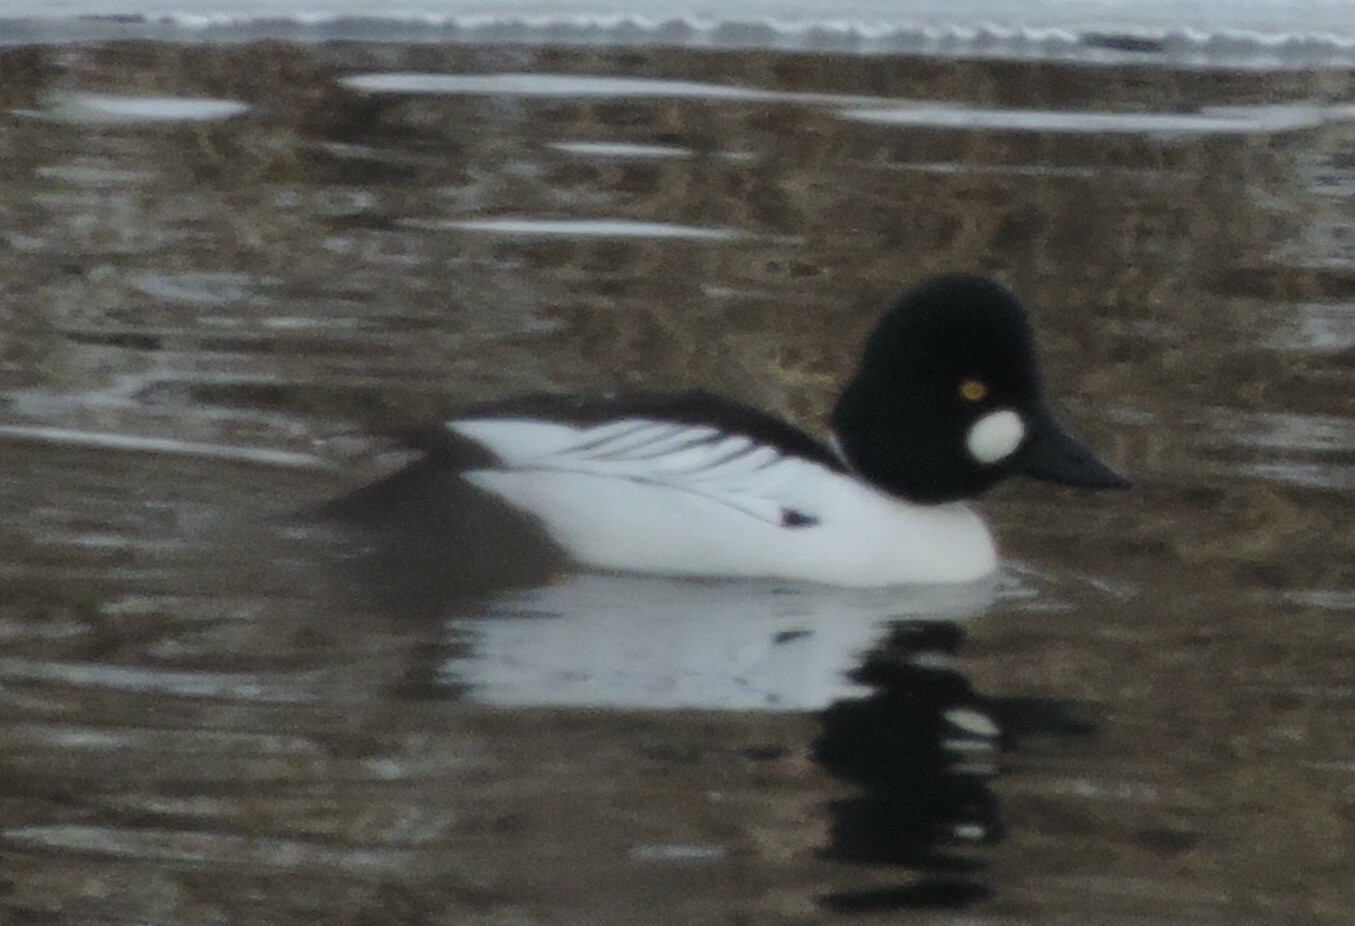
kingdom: Animalia
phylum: Chordata
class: Aves
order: Anseriformes
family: Anatidae
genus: Bucephala
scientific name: Bucephala clangula
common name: Common goldeneye
